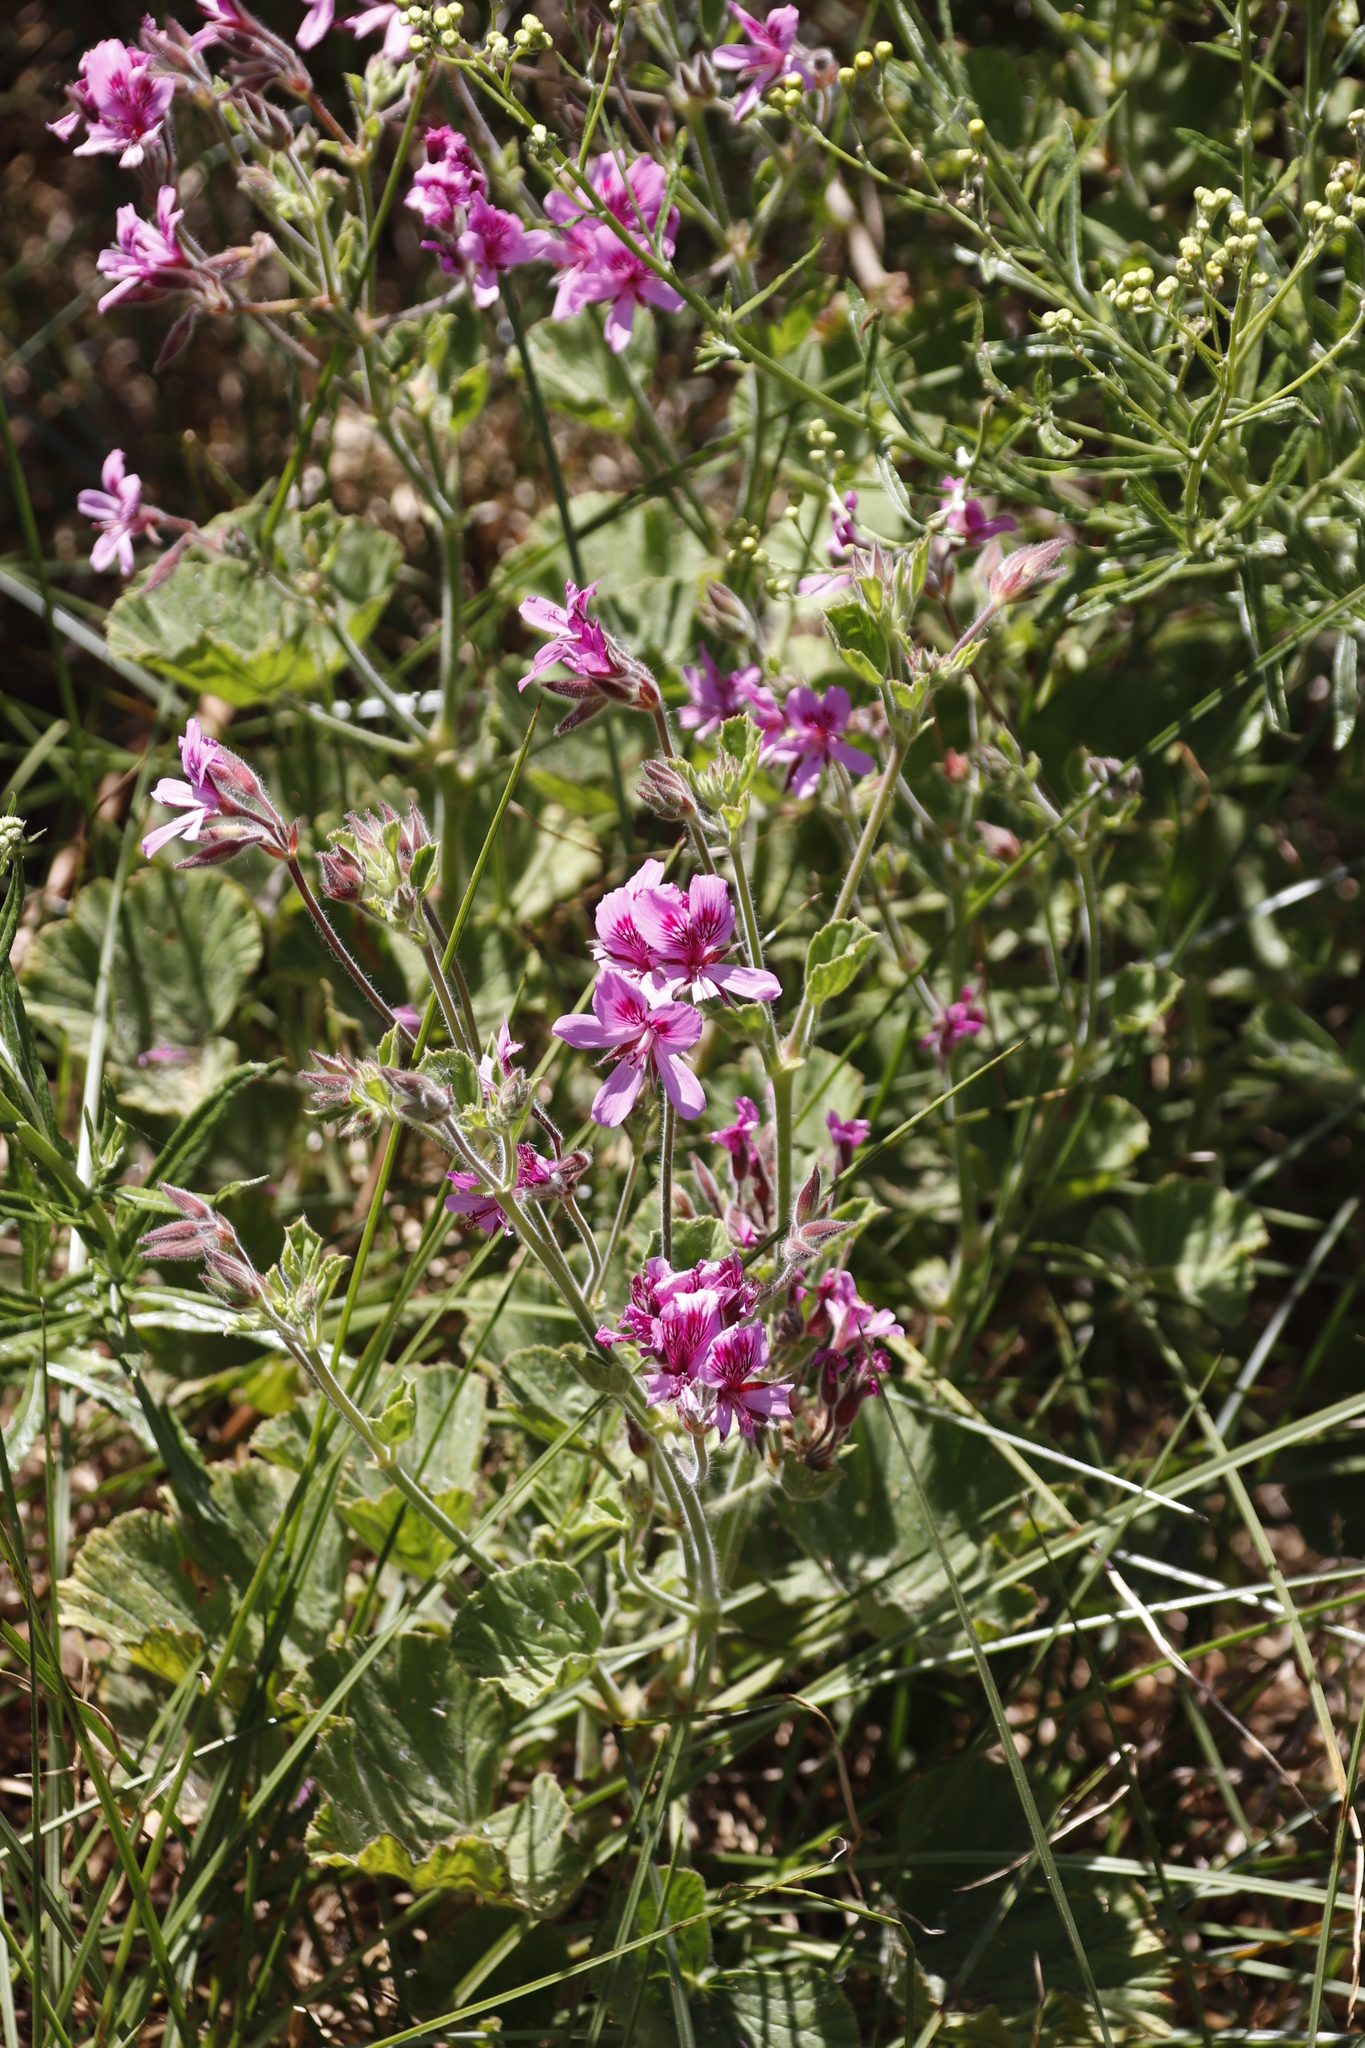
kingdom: Plantae
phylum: Tracheophyta
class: Magnoliopsida
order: Geraniales
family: Geraniaceae
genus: Pelargonium
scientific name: Pelargonium cucullatum
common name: Tree pelargonium
